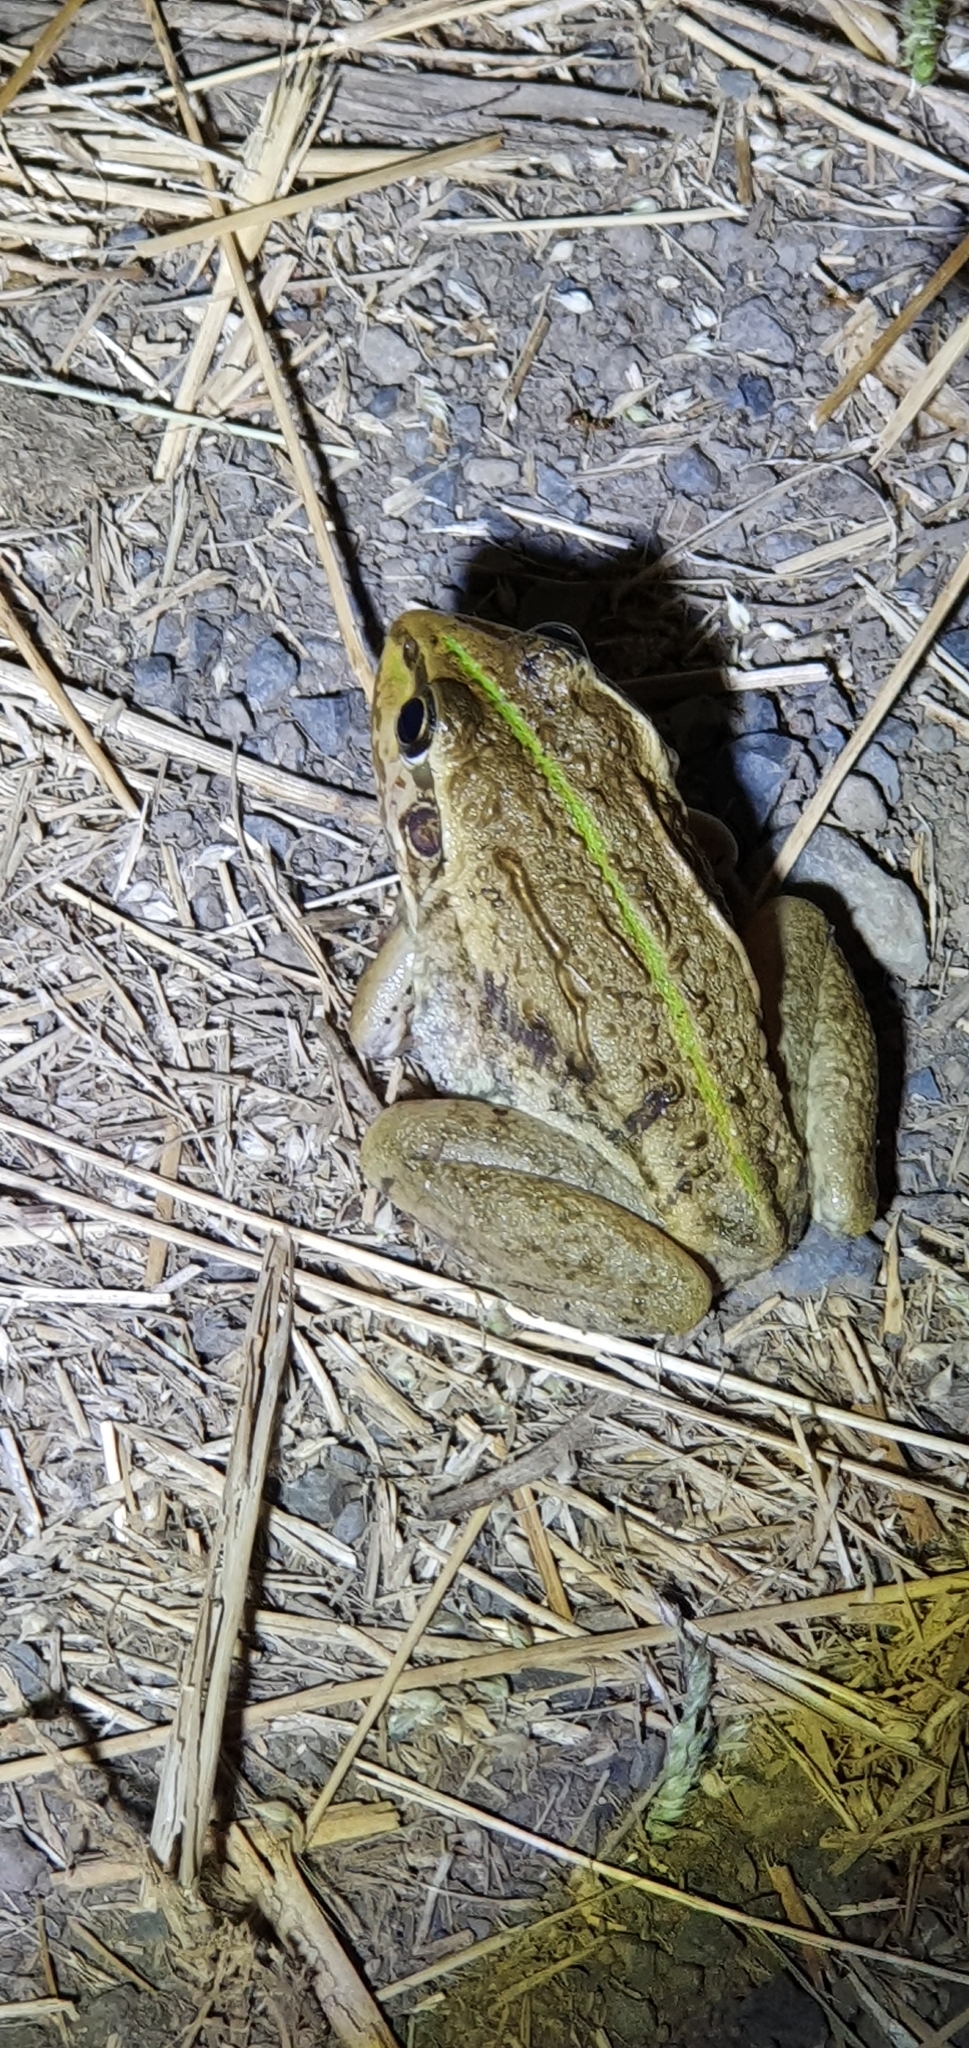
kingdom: Animalia
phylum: Chordata
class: Amphibia
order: Anura
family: Pelodryadidae
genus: Ranoidea
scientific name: Ranoidea alboguttata
